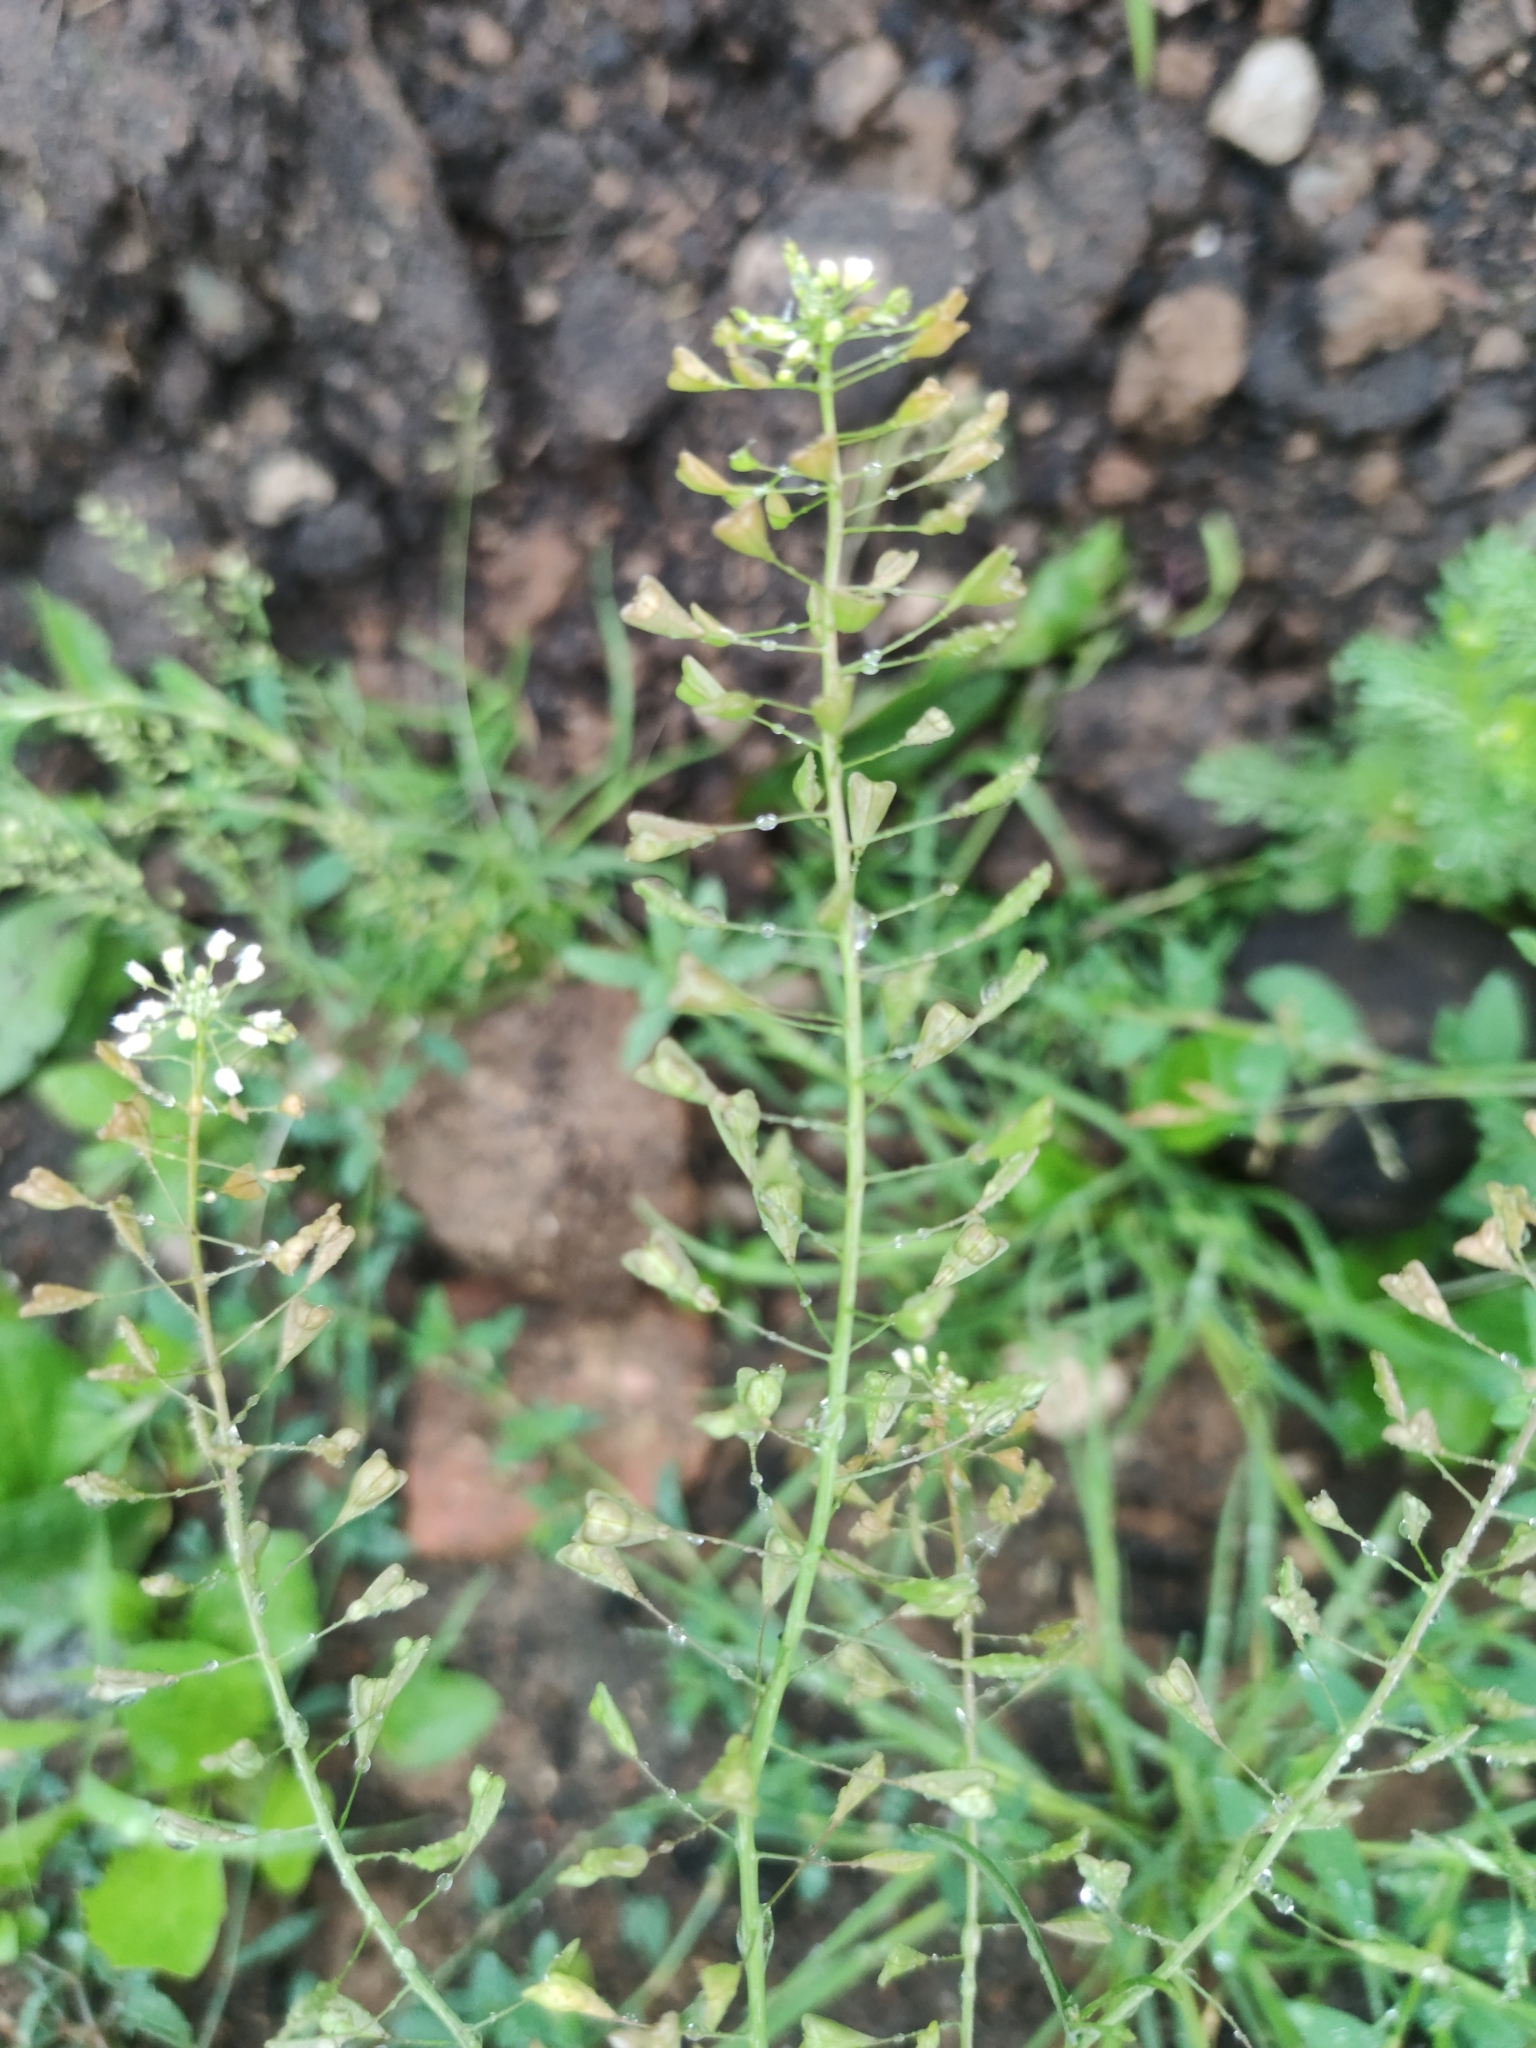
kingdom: Plantae
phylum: Tracheophyta
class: Magnoliopsida
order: Brassicales
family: Brassicaceae
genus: Capsella
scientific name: Capsella bursa-pastoris
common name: Shepherd's purse
